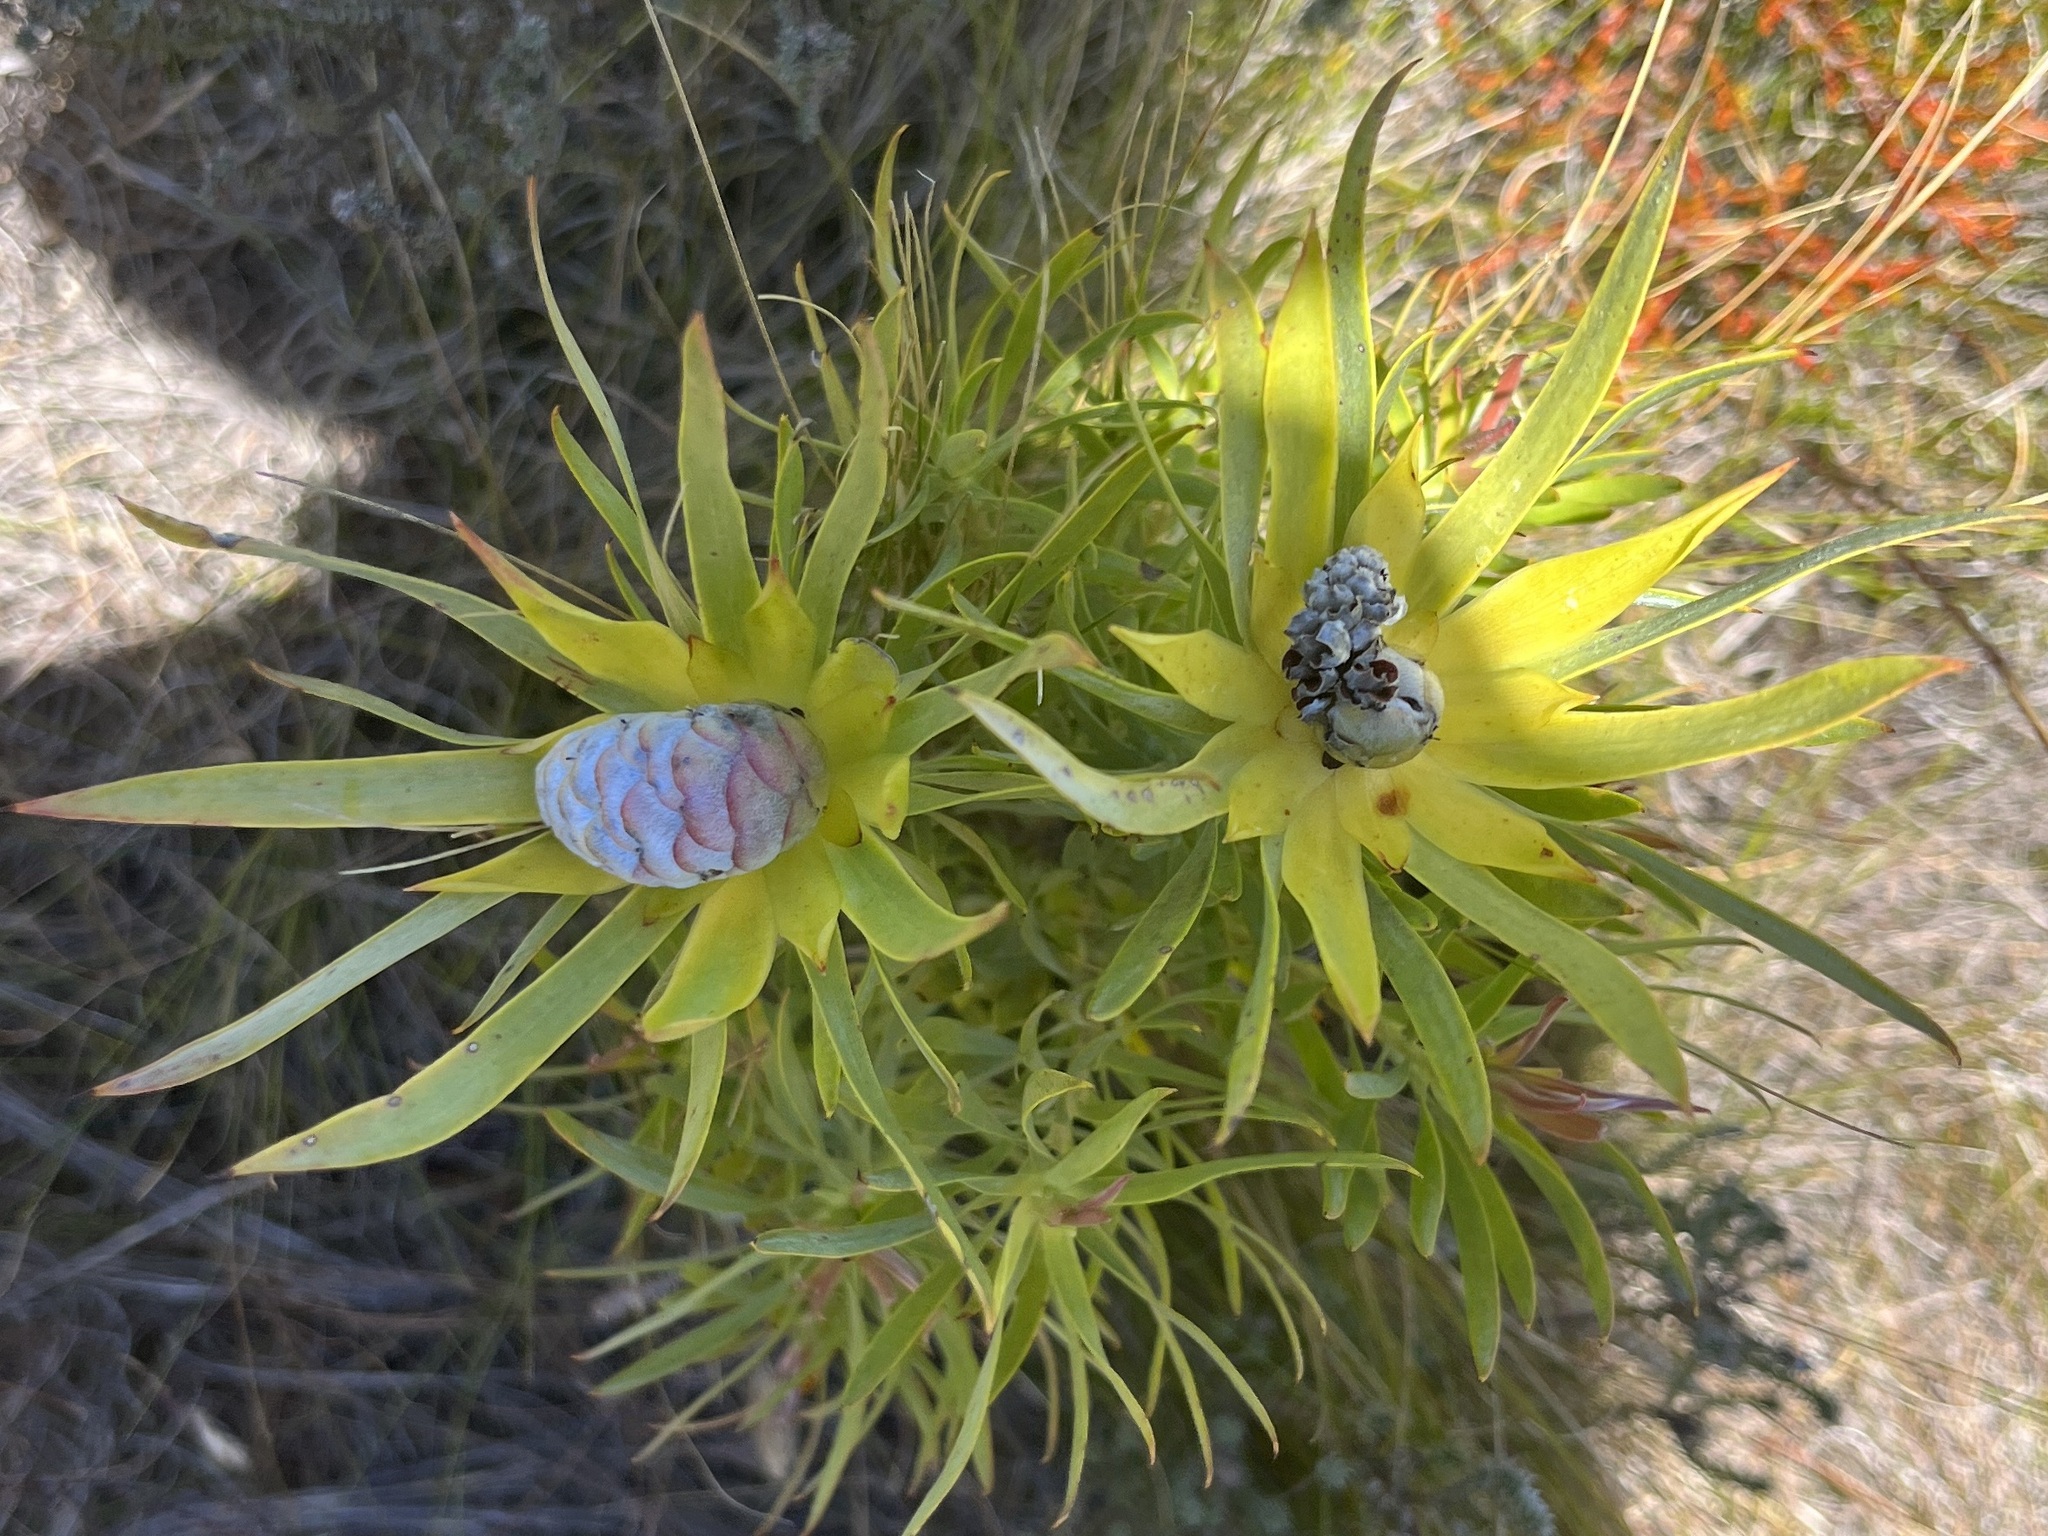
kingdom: Plantae
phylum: Tracheophyta
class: Magnoliopsida
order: Proteales
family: Proteaceae
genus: Leucadendron
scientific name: Leucadendron xanthoconus
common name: Sickle-leaf conebush
